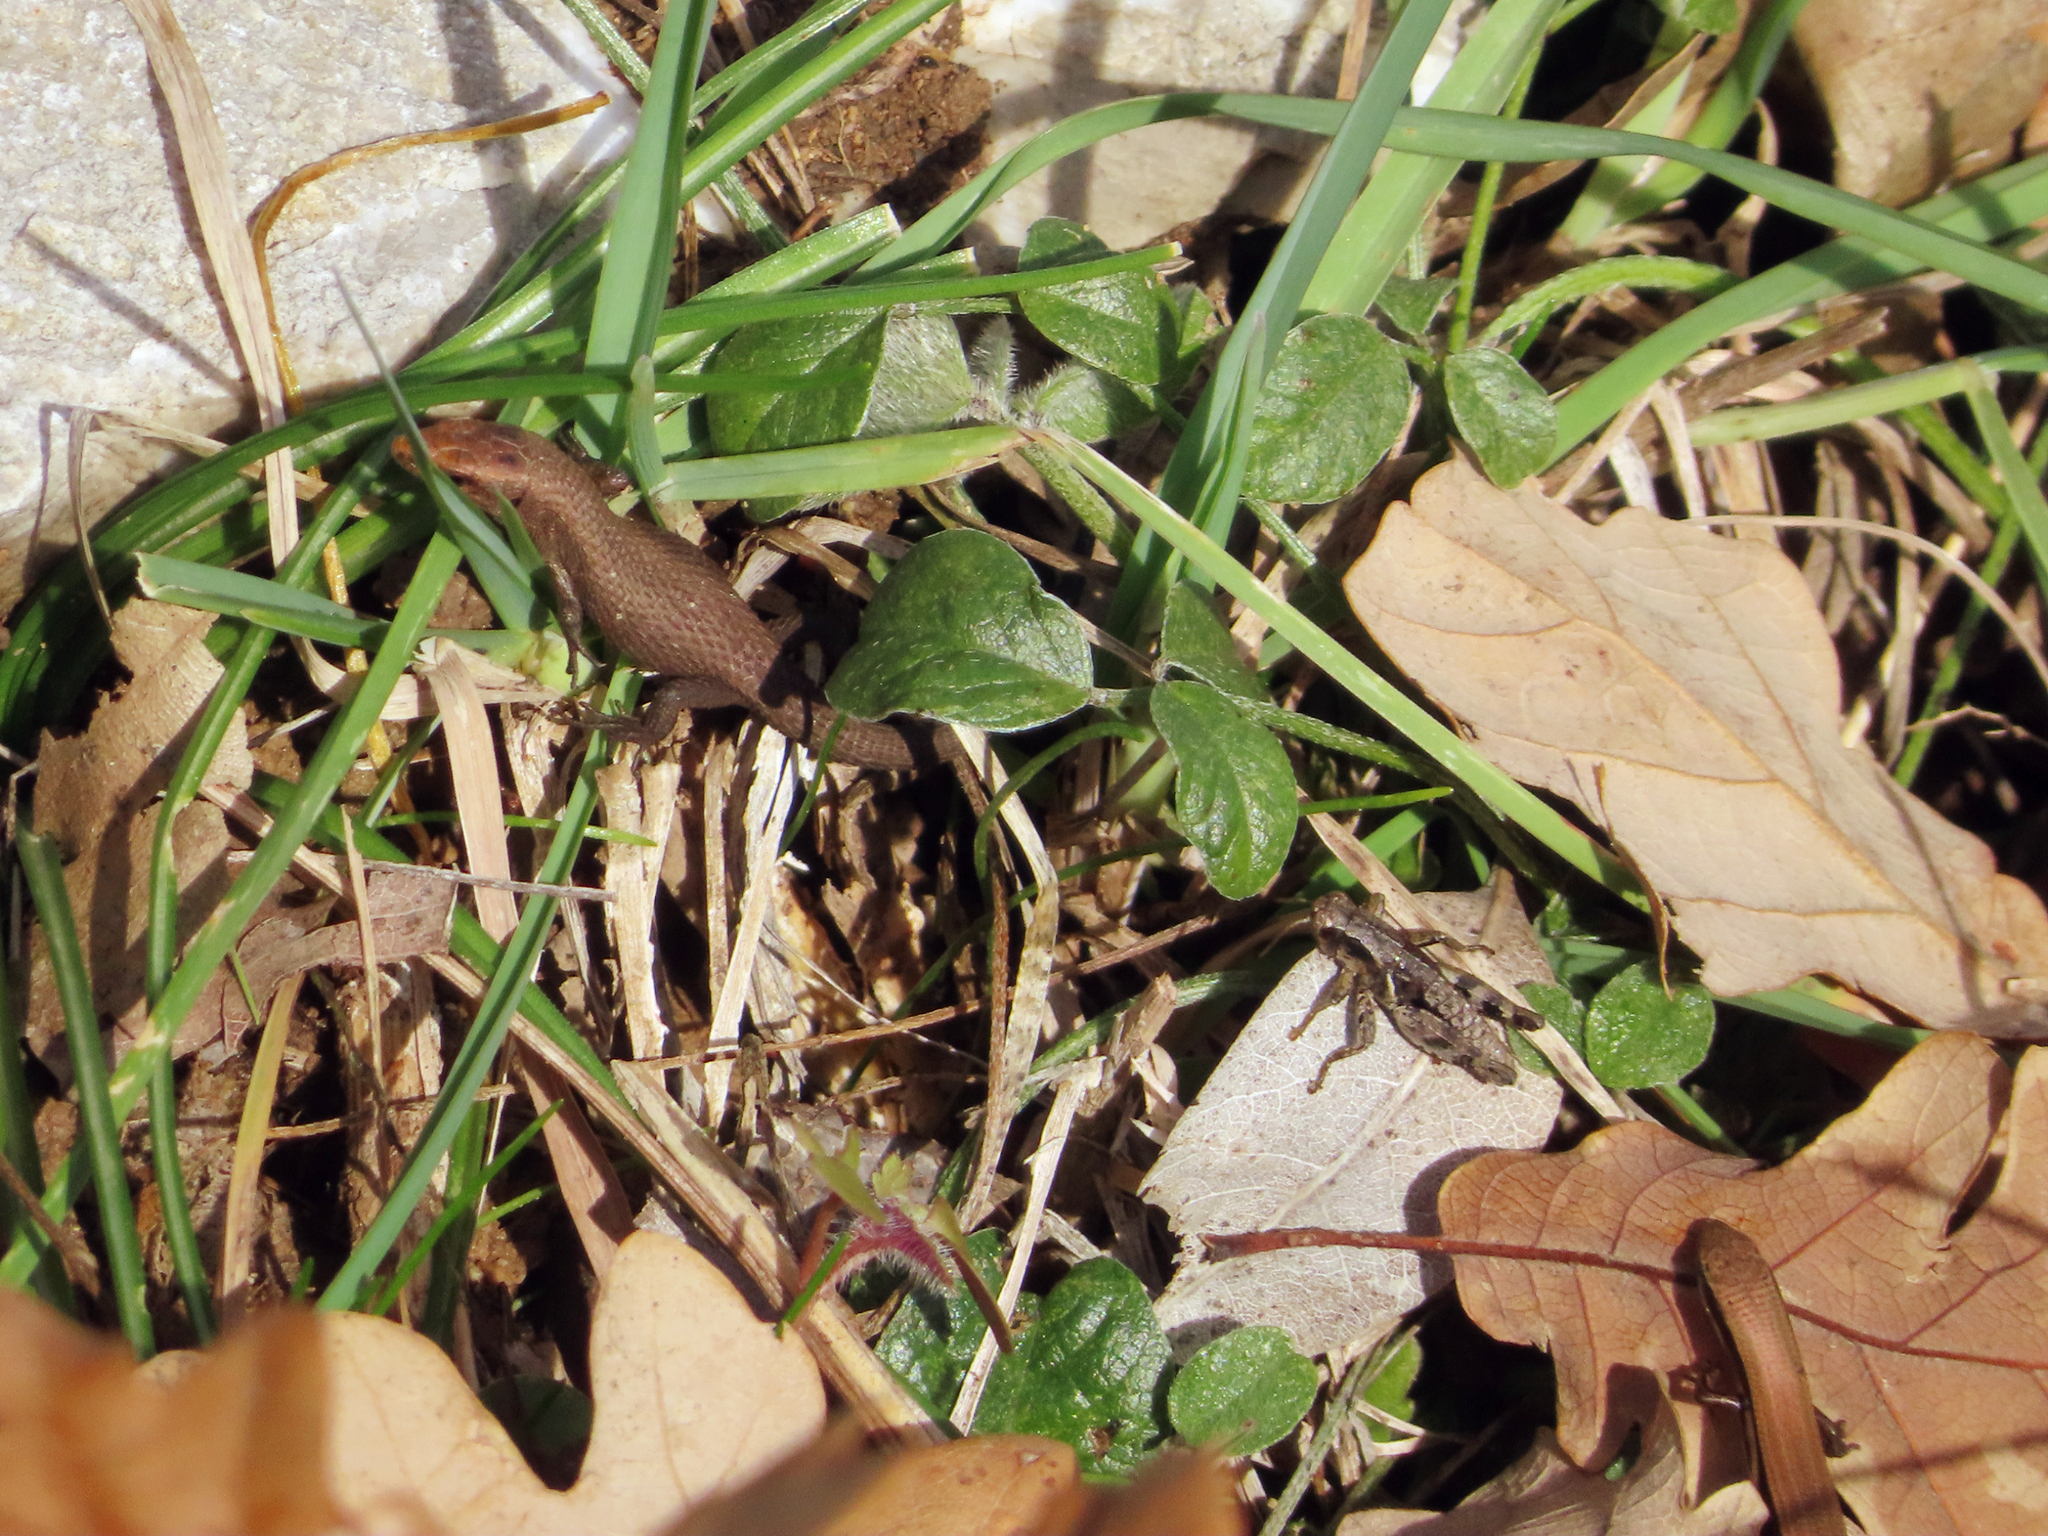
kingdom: Animalia
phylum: Chordata
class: Squamata
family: Lacertidae
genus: Algyroides
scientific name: Algyroides moreoticus
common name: Greek algyroides
